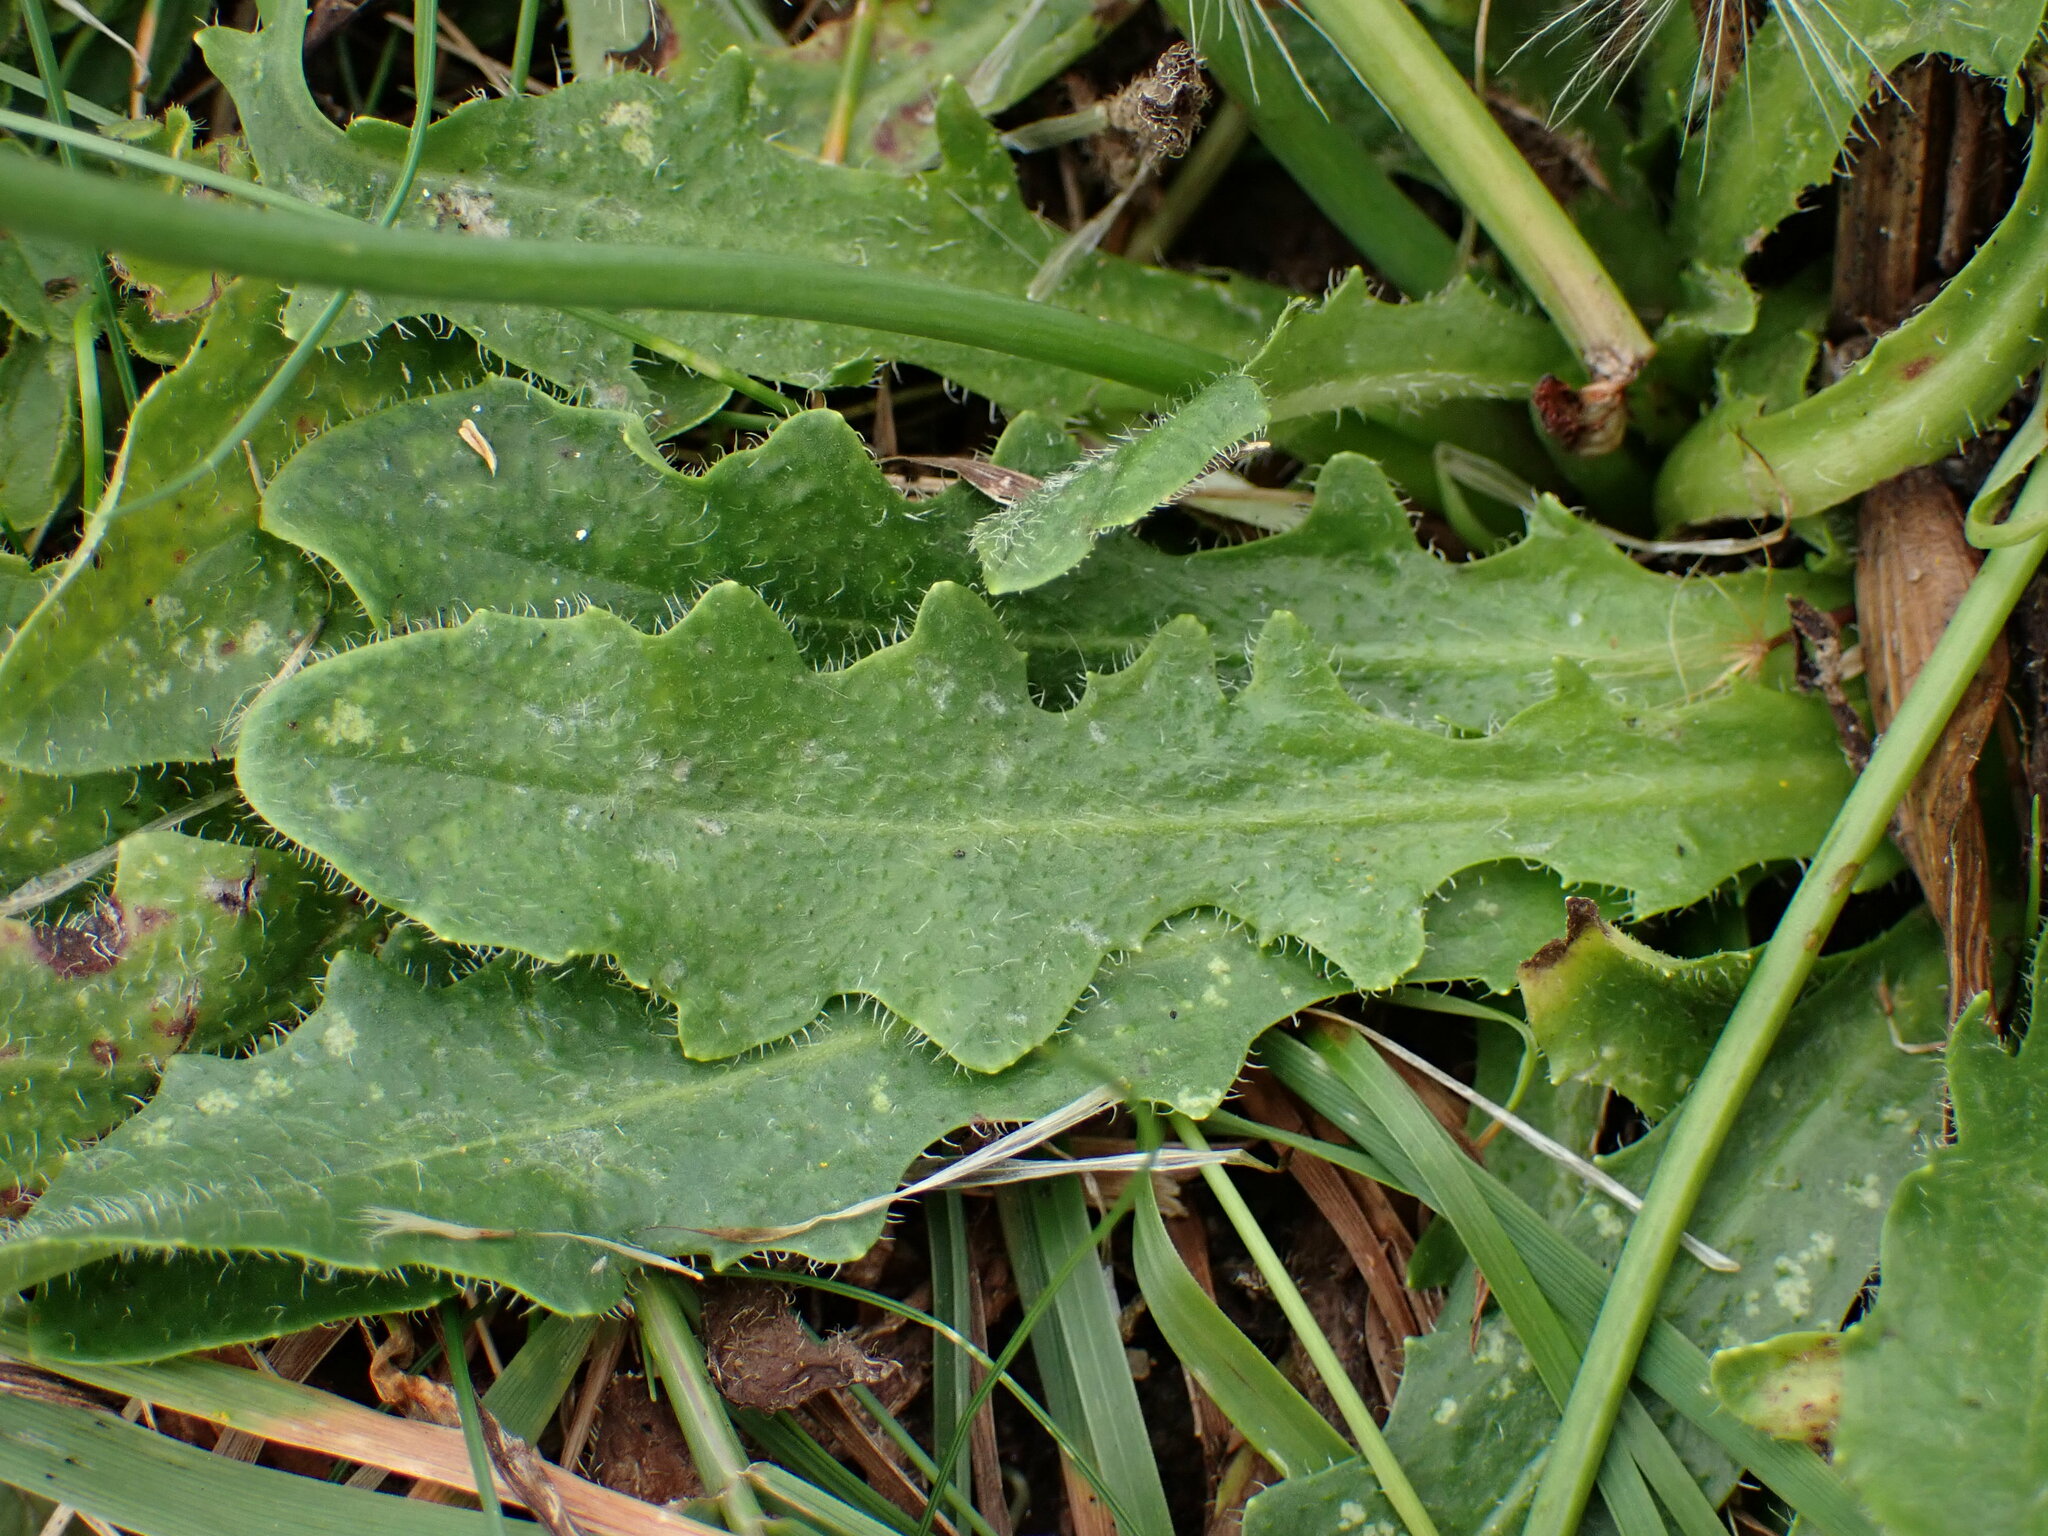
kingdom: Plantae
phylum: Tracheophyta
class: Magnoliopsida
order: Asterales
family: Asteraceae
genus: Hypochaeris
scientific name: Hypochaeris radicata
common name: Flatweed
